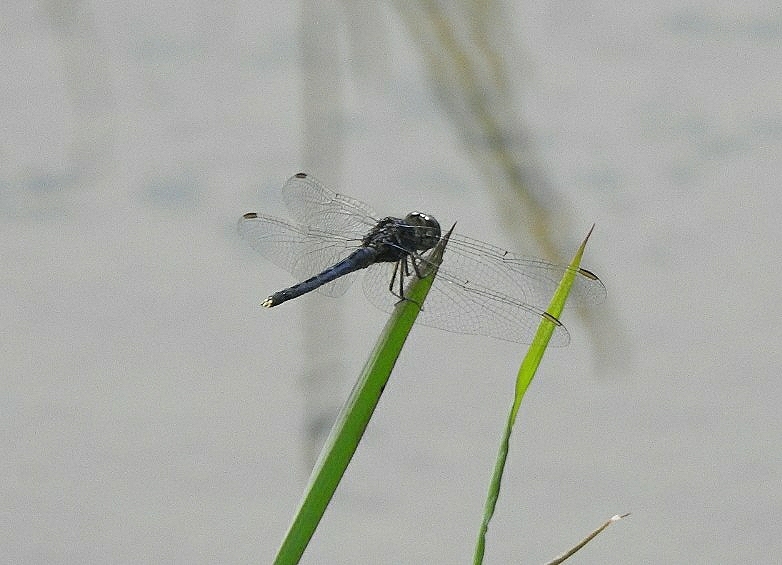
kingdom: Animalia
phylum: Arthropoda
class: Insecta
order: Odonata
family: Libellulidae
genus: Indothemis
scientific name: Indothemis carnatica
